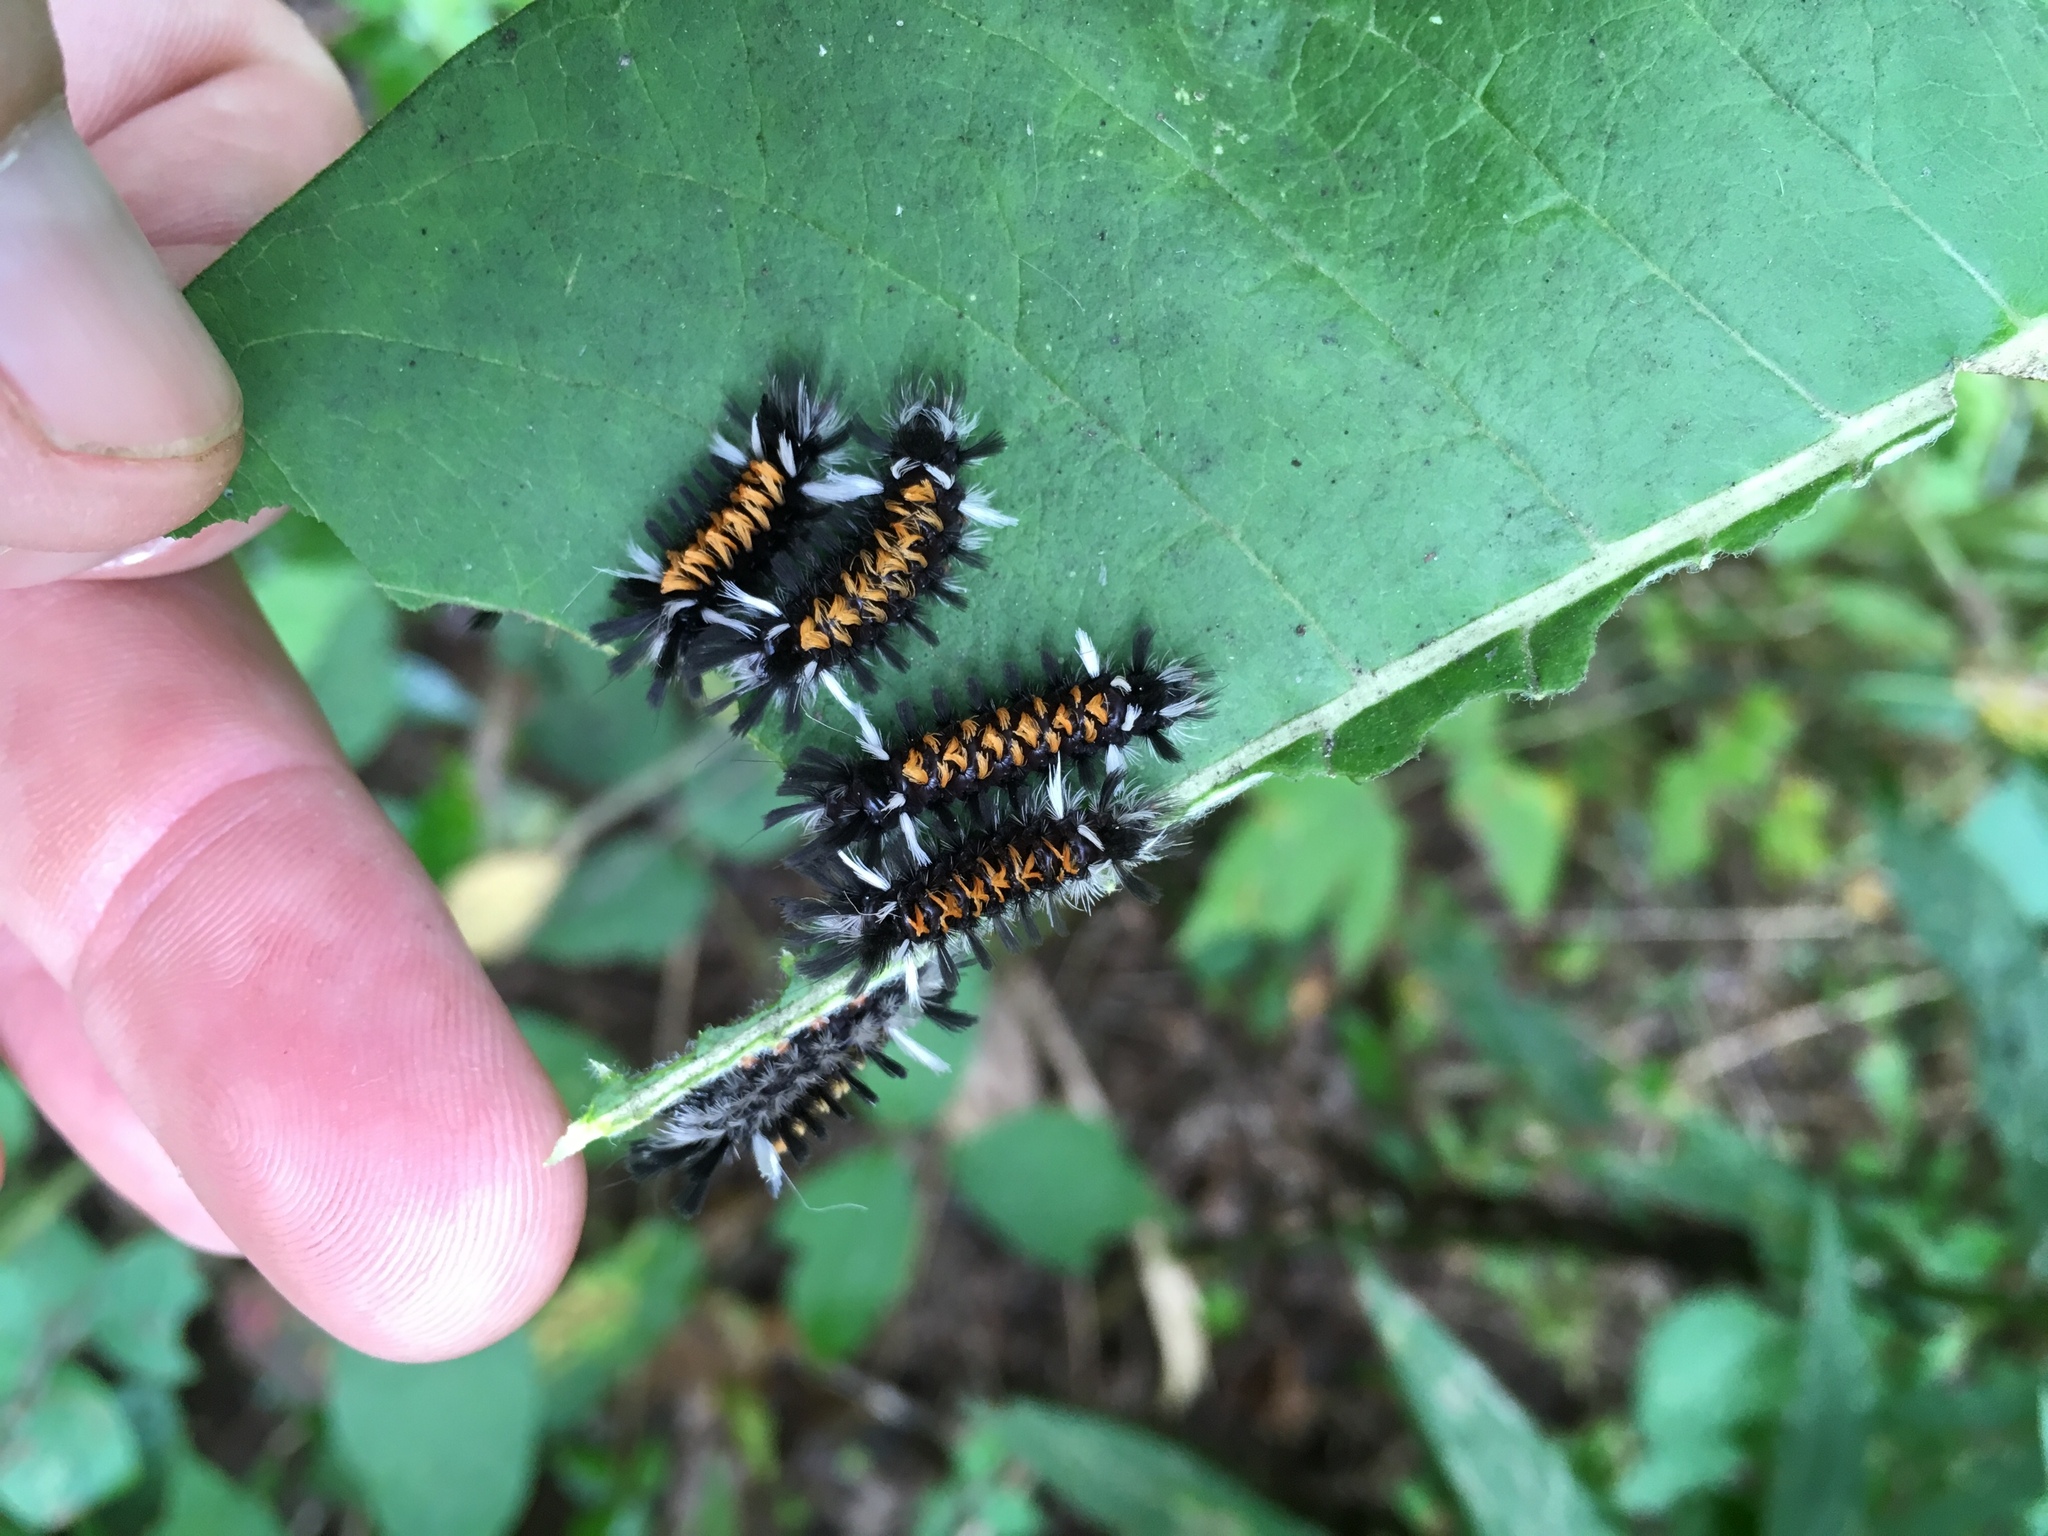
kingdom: Animalia
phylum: Arthropoda
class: Insecta
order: Lepidoptera
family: Erebidae
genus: Euchaetes
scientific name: Euchaetes egle
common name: Milkweed tussock moth
